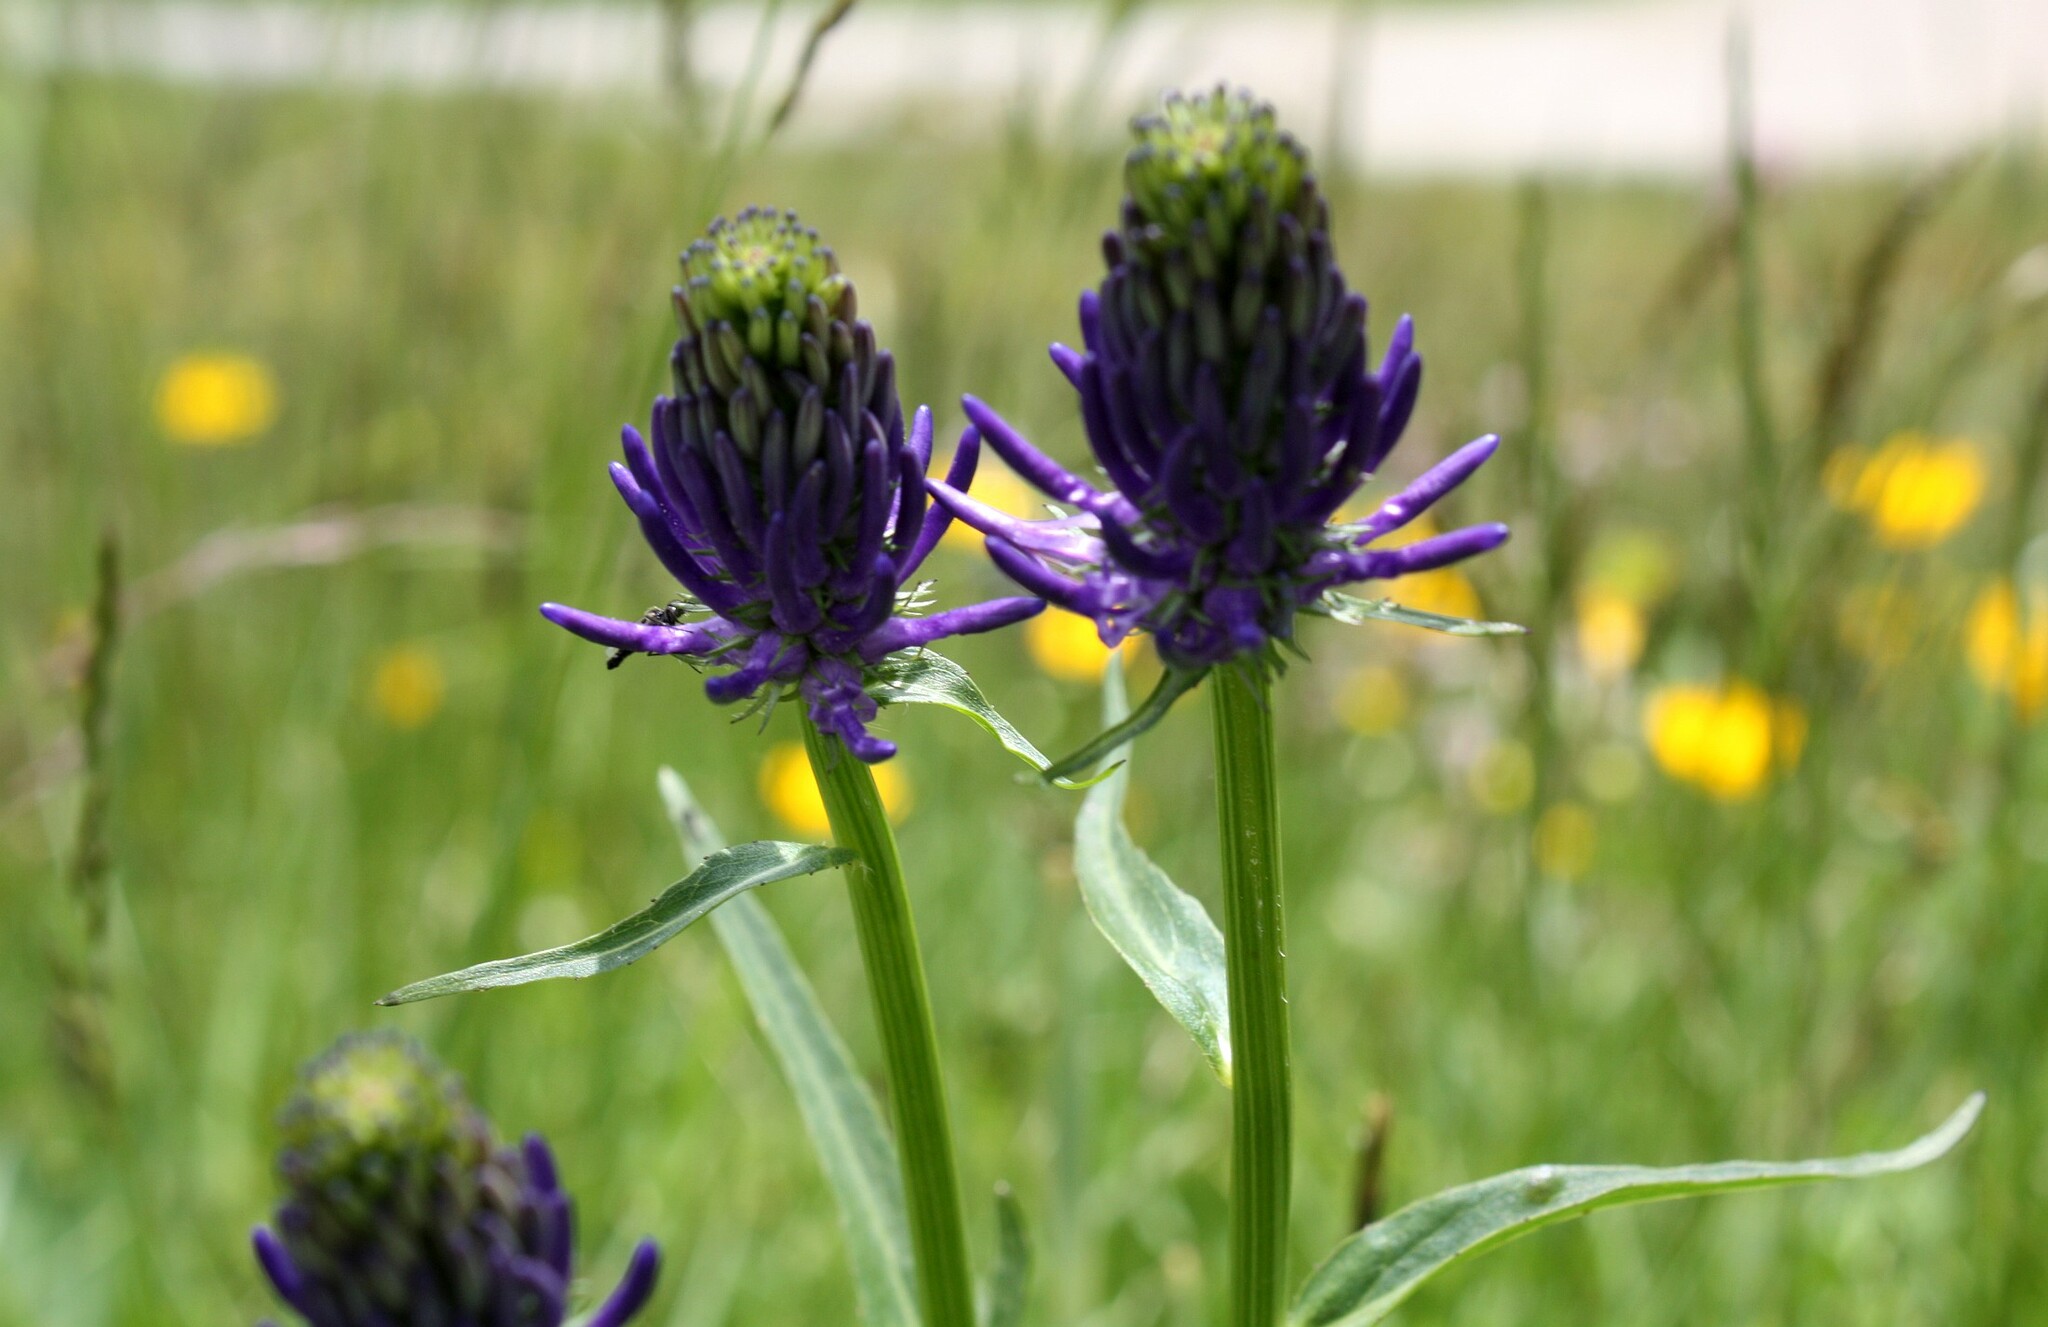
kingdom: Plantae
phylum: Tracheophyta
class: Magnoliopsida
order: Asterales
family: Campanulaceae
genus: Phyteuma
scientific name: Phyteuma betonicifolium
